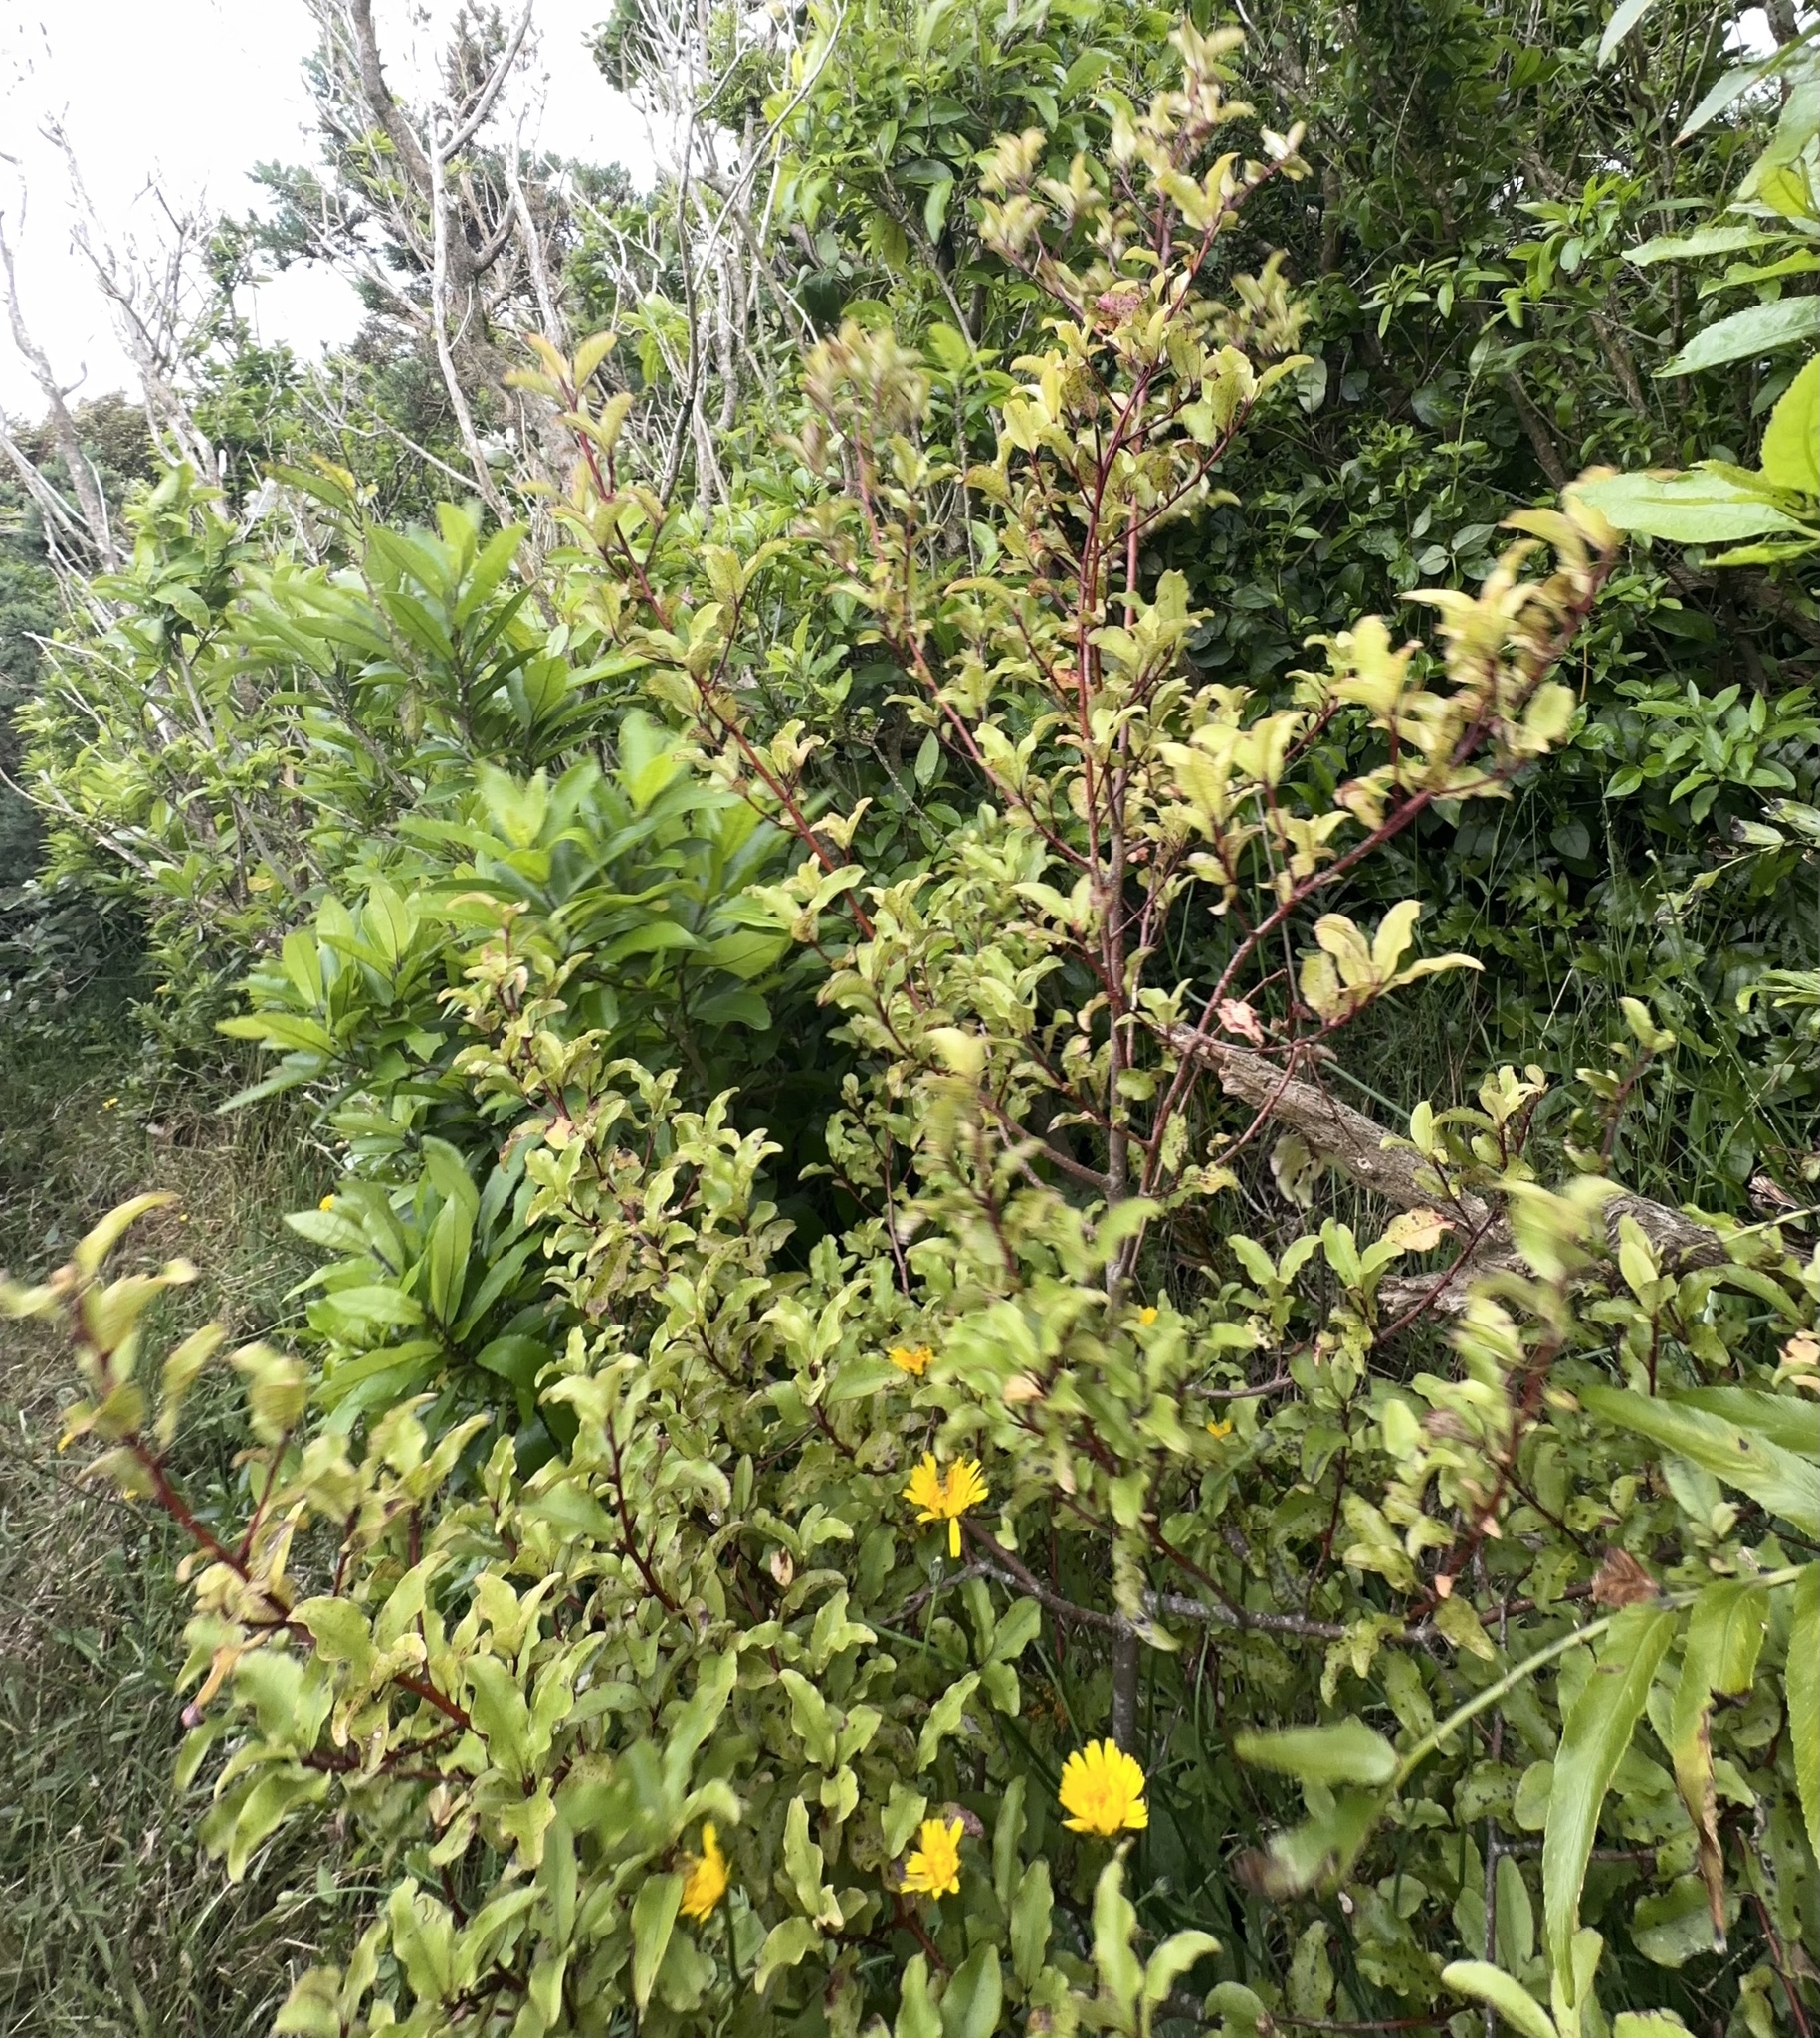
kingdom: Plantae
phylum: Tracheophyta
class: Magnoliopsida
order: Ericales
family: Primulaceae
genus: Myrsine
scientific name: Myrsine australis
